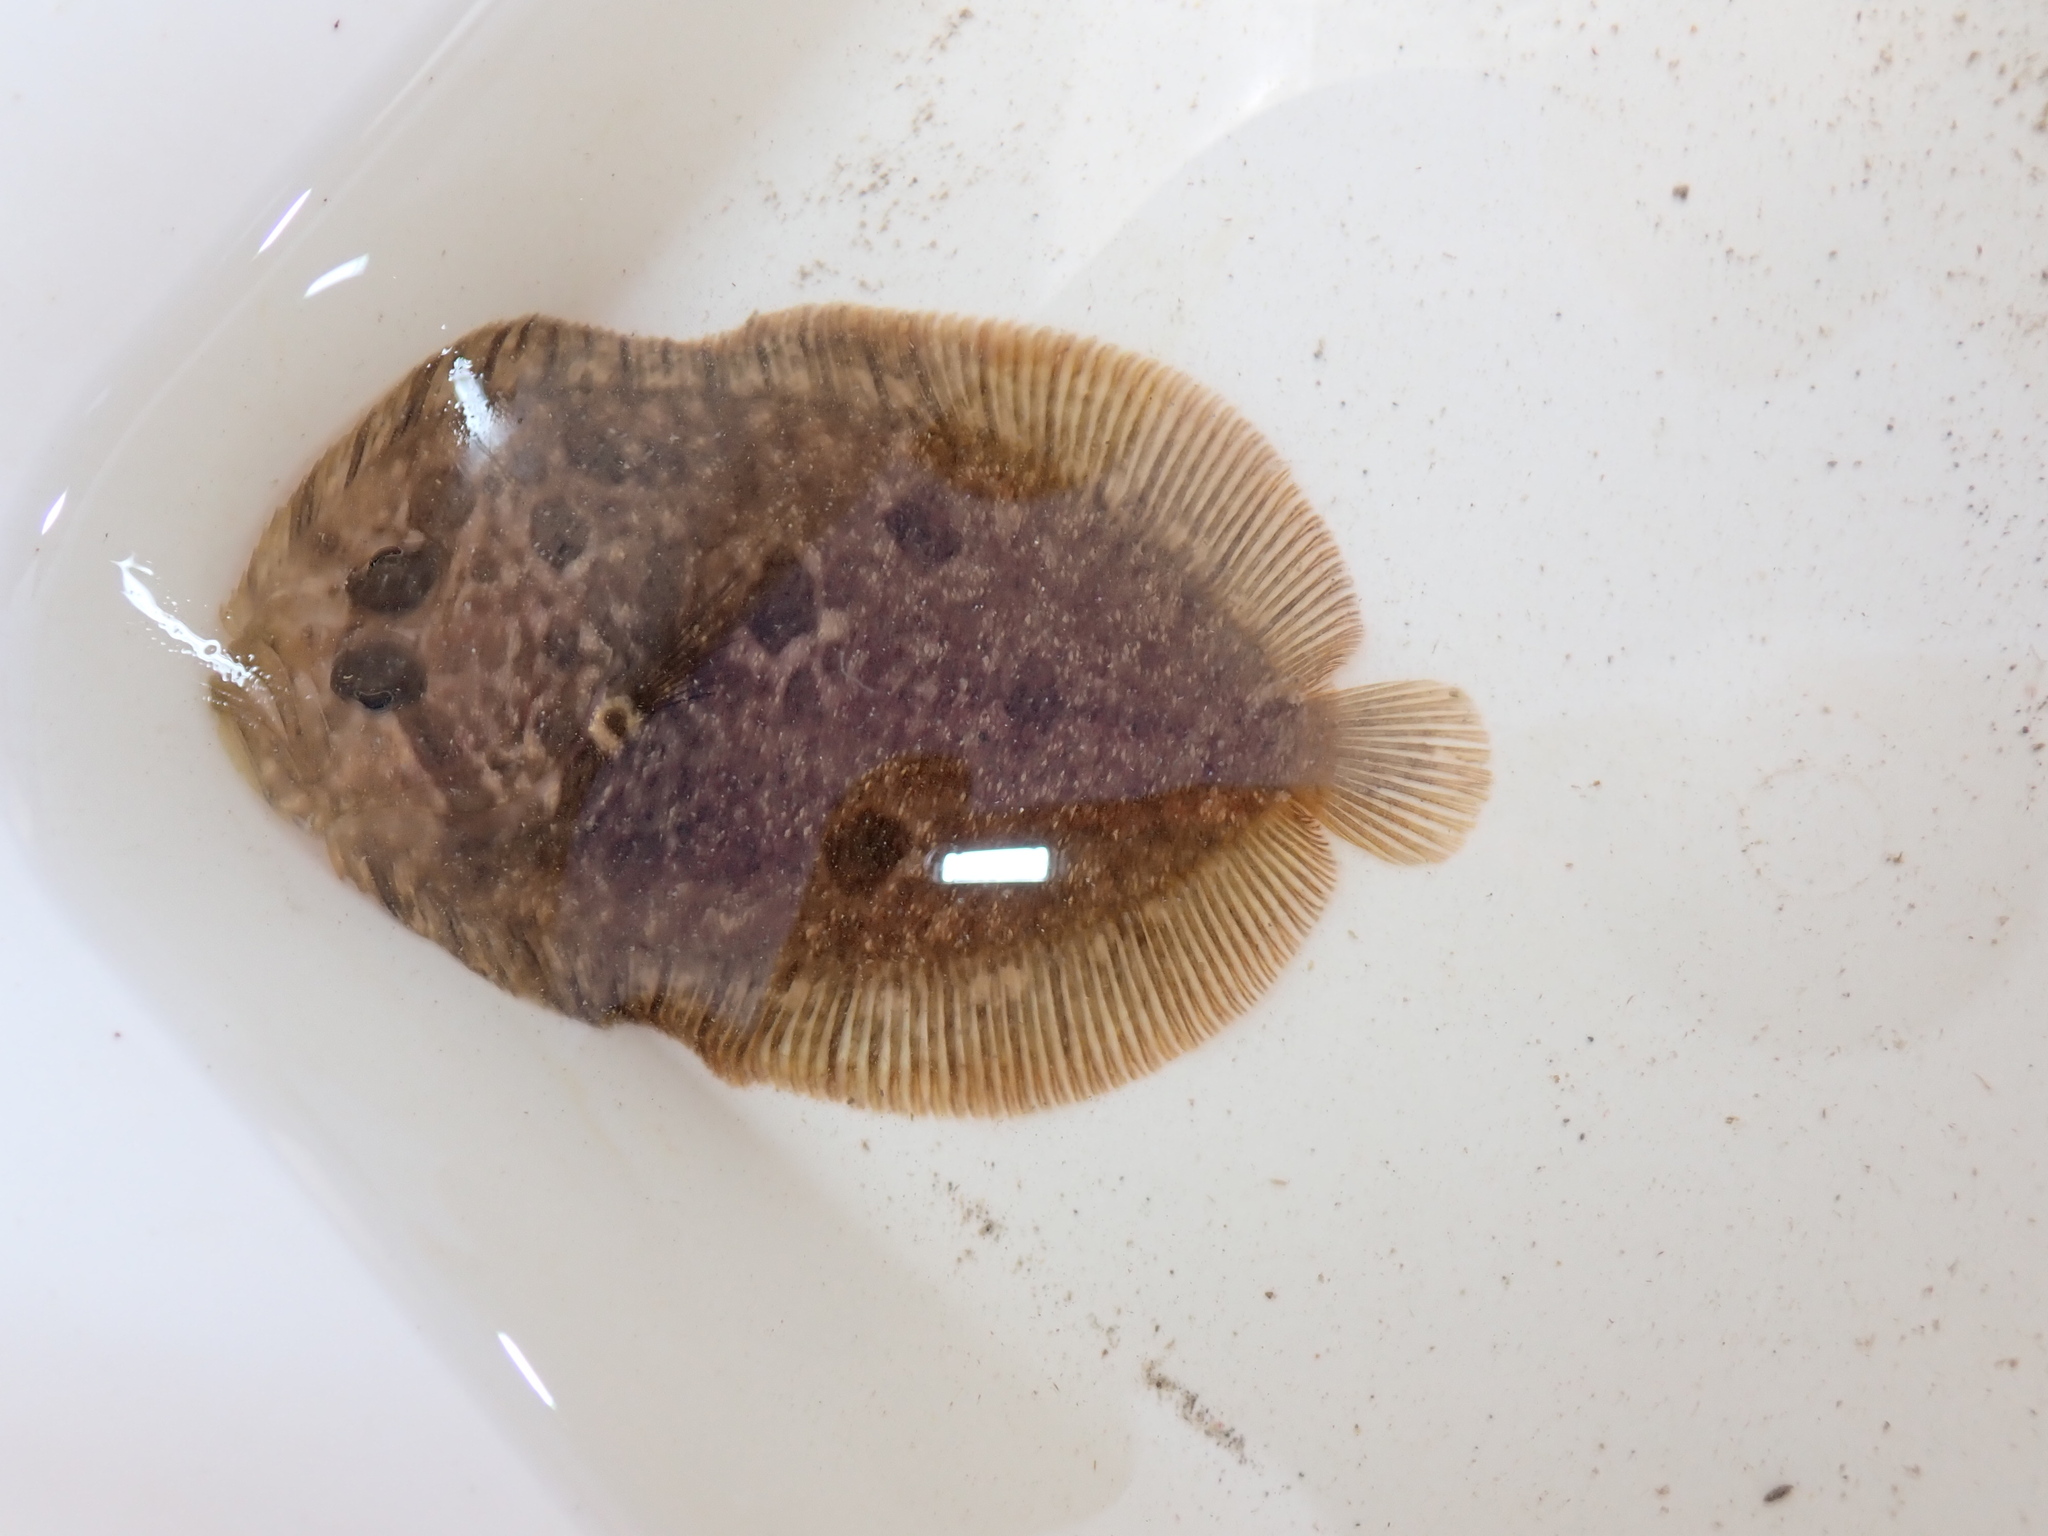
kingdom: Animalia
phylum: Chordata
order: Pleuronectiformes
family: Scophthalmidae
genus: Zeugopterus
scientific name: Zeugopterus punctatus
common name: Topknot
